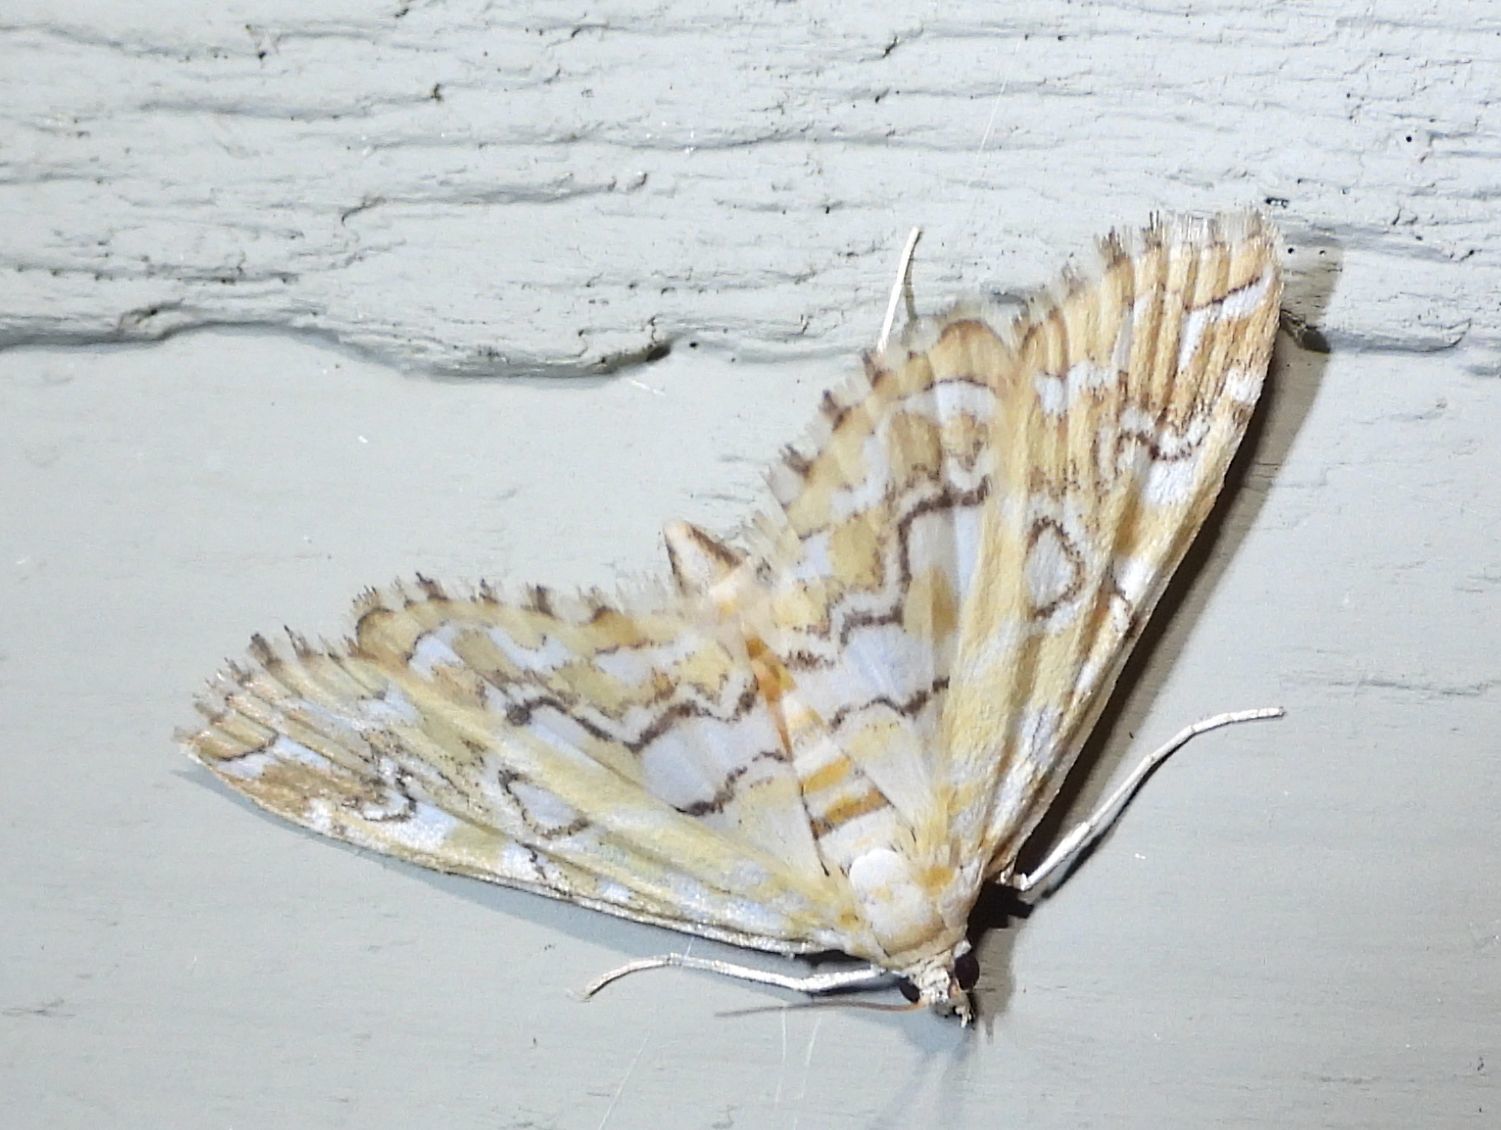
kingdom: Animalia
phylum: Arthropoda
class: Insecta
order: Lepidoptera
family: Crambidae
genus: Elophila
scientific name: Elophila icciusalis
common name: Pondside pyralid moth
